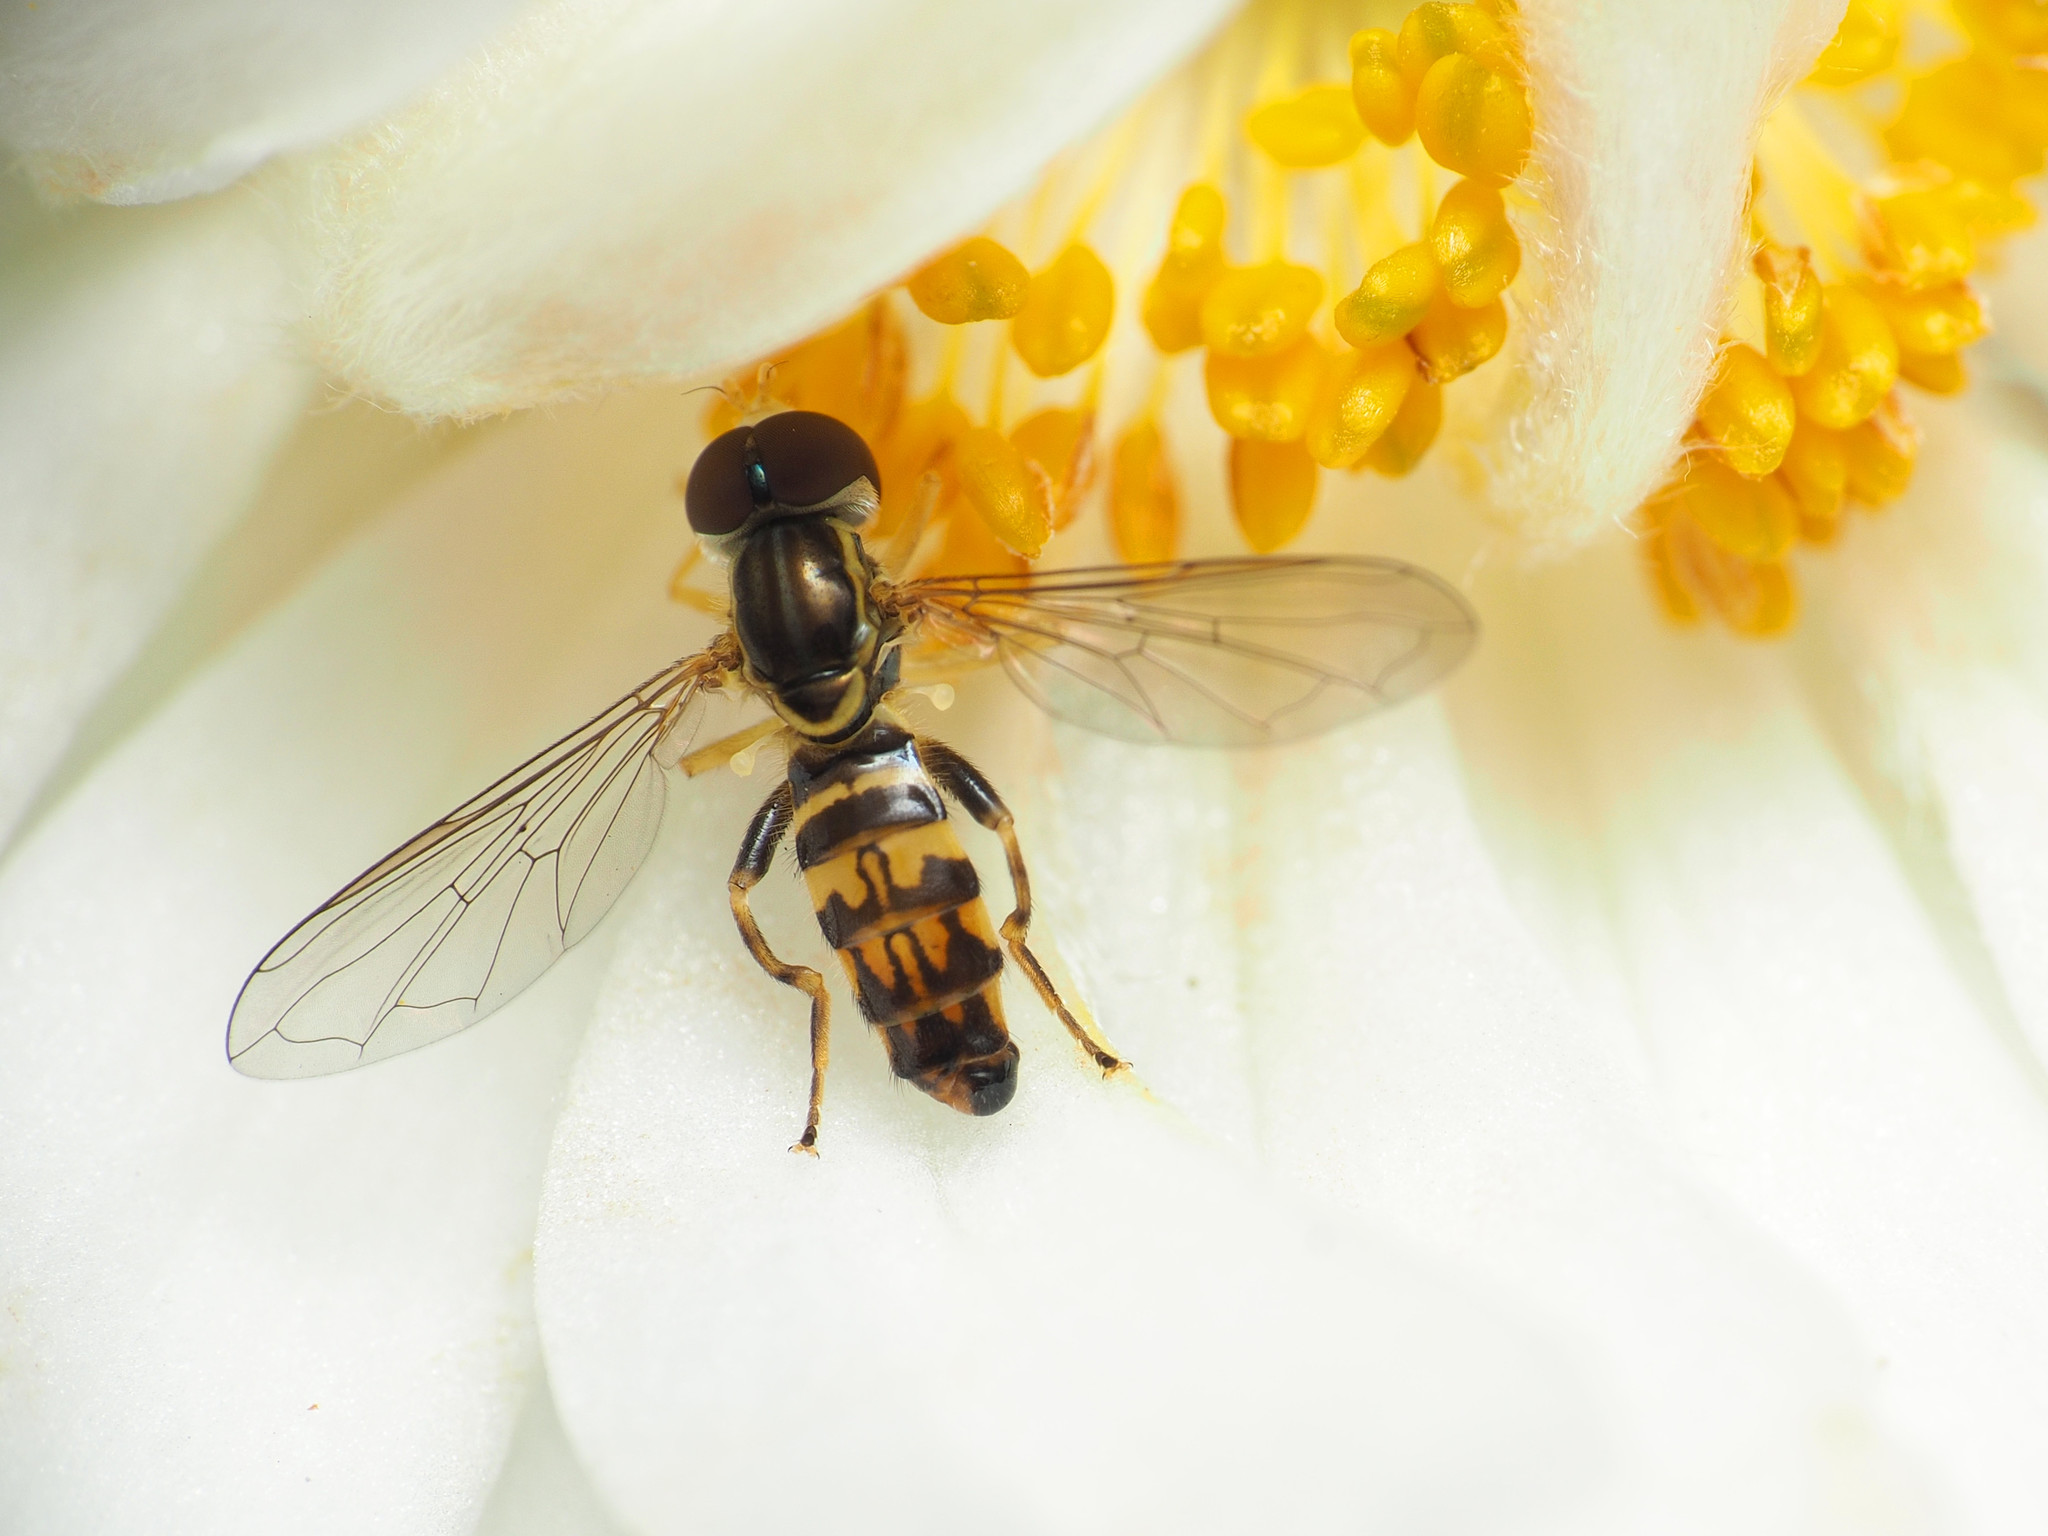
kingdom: Animalia
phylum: Arthropoda
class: Insecta
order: Diptera
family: Syrphidae
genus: Toxomerus
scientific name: Toxomerus geminatus
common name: Eastern calligrapher
